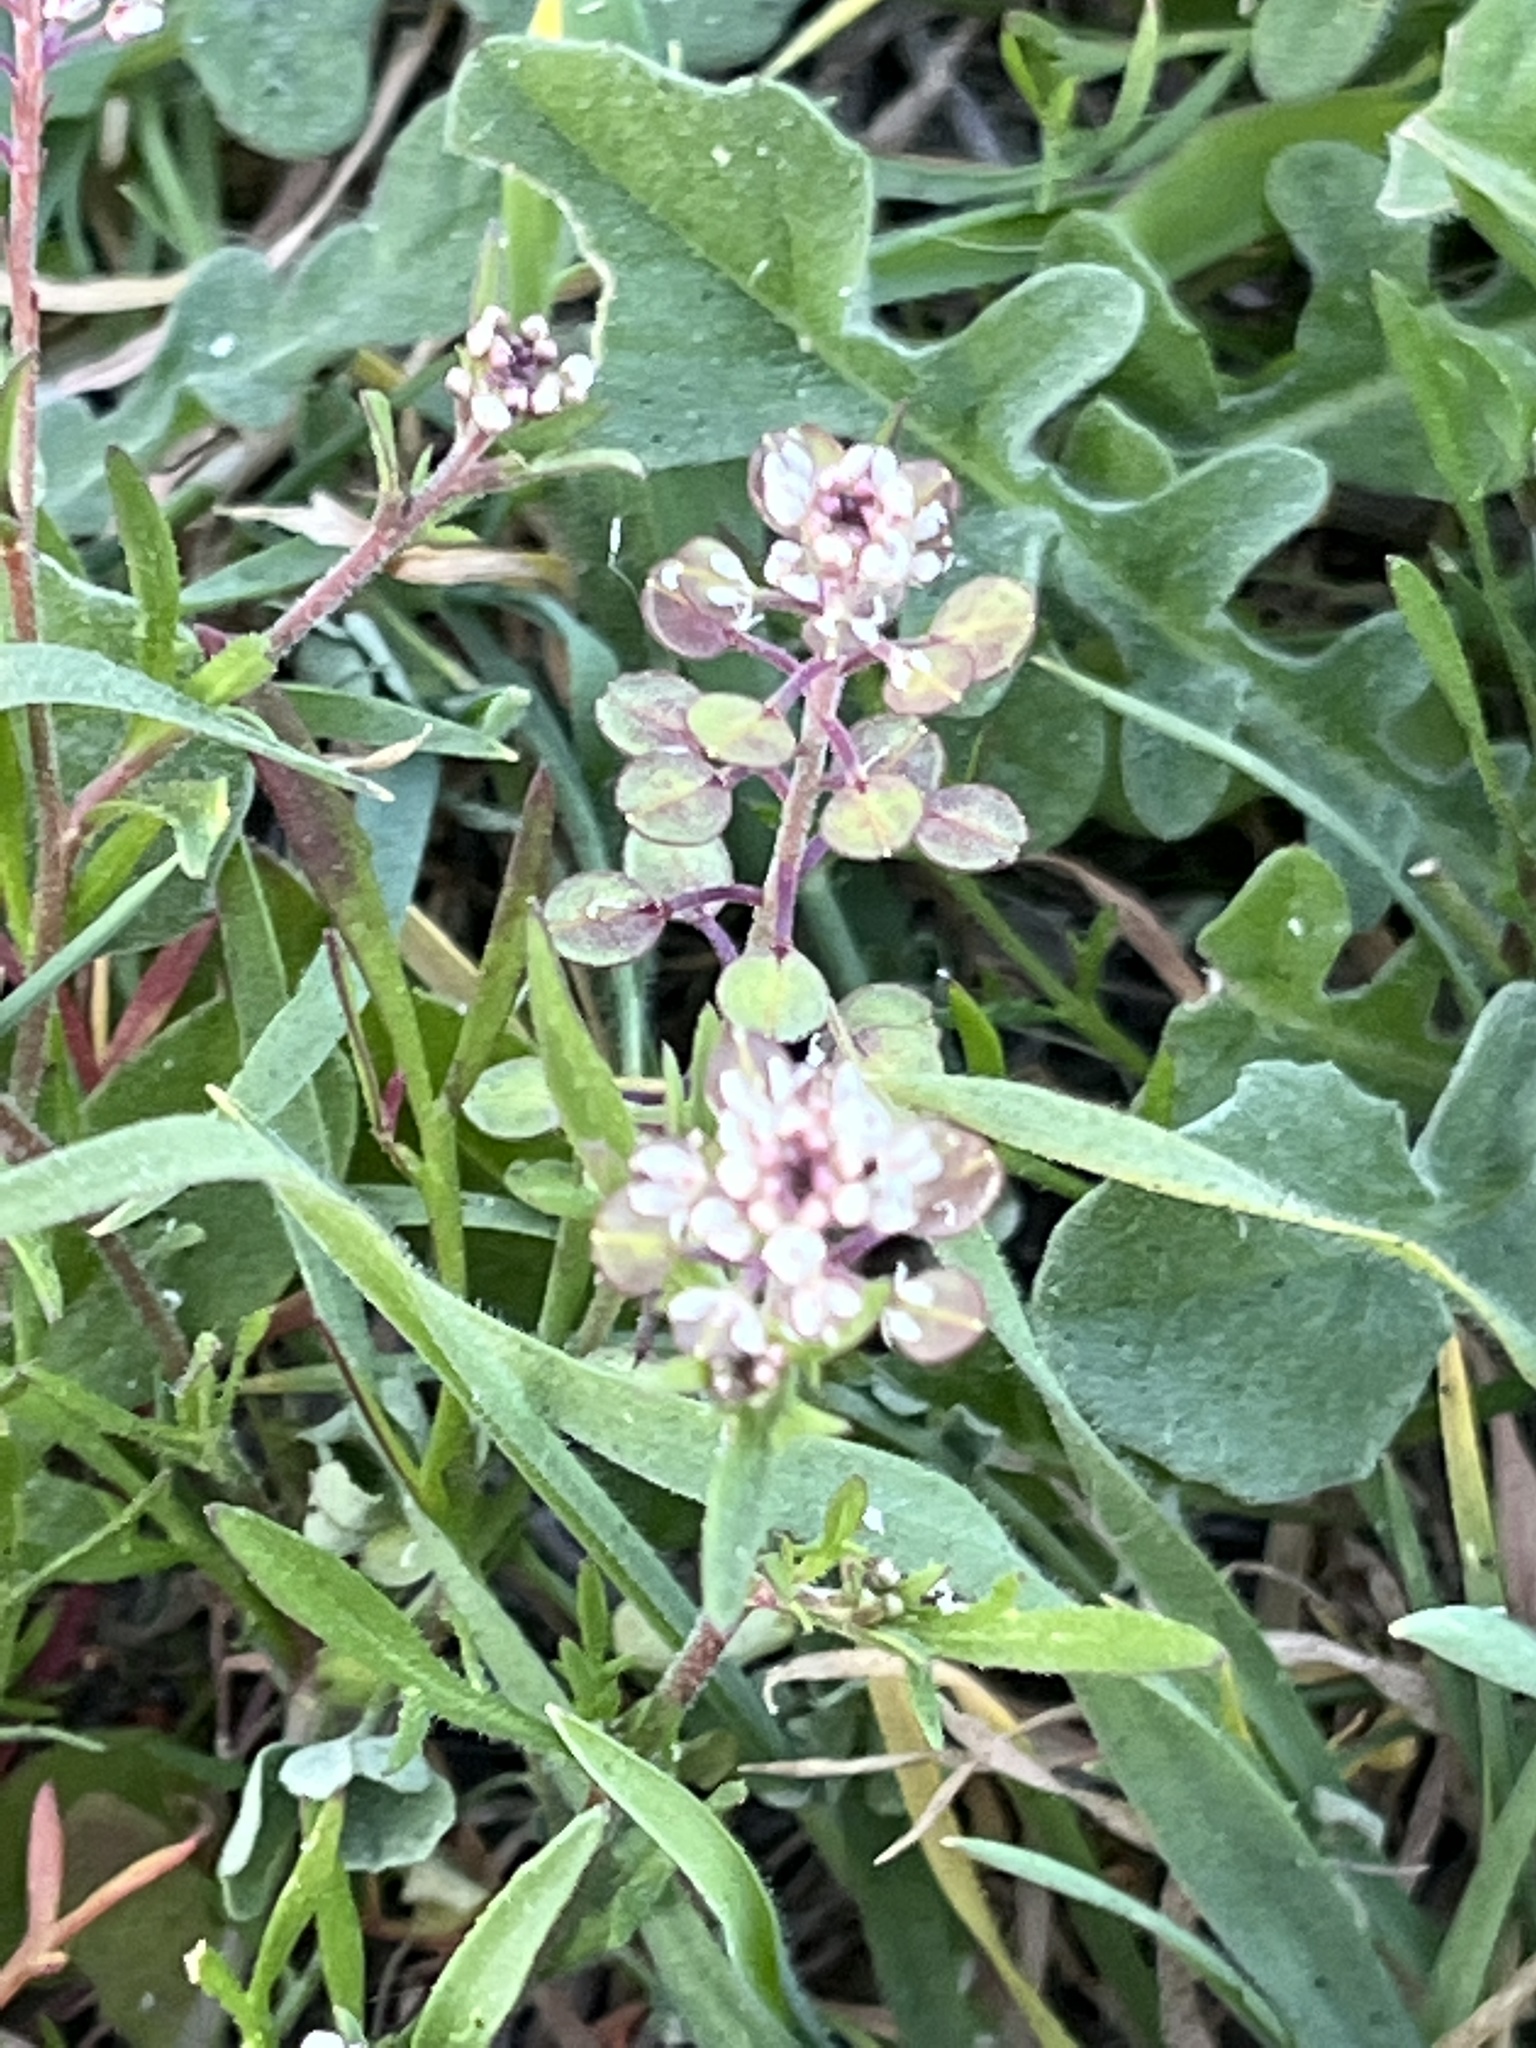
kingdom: Plantae
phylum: Tracheophyta
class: Magnoliopsida
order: Brassicales
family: Brassicaceae
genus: Lepidium
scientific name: Lepidium nitidum
